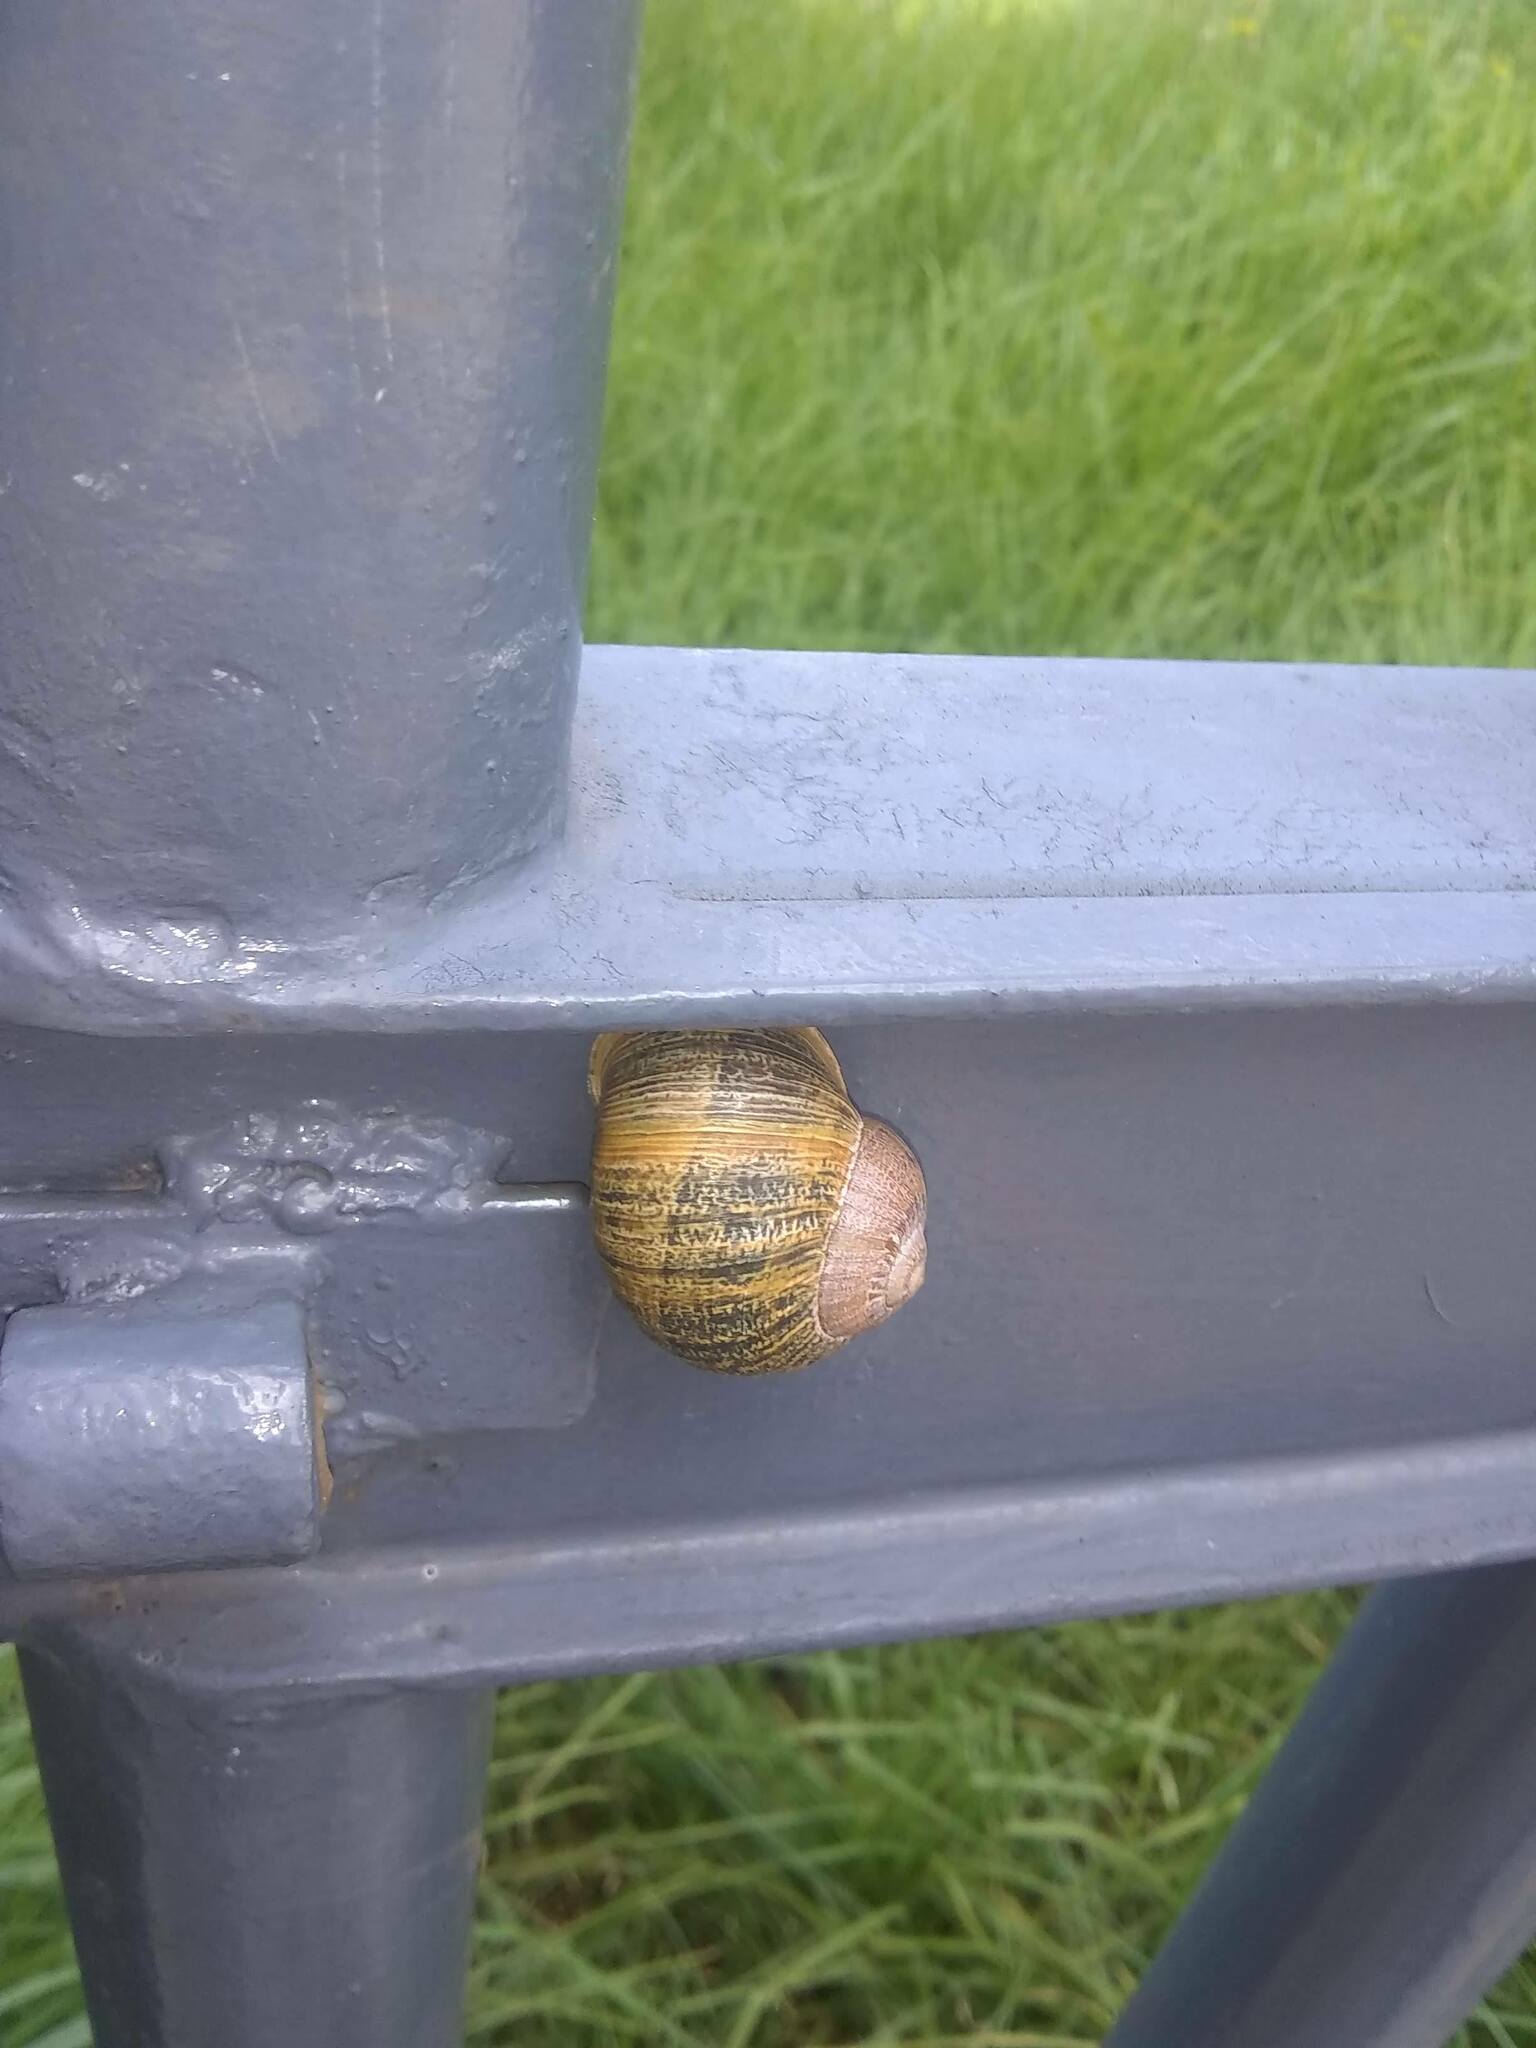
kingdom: Animalia
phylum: Mollusca
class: Gastropoda
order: Stylommatophora
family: Helicidae
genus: Cornu
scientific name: Cornu aspersum
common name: Brown garden snail
